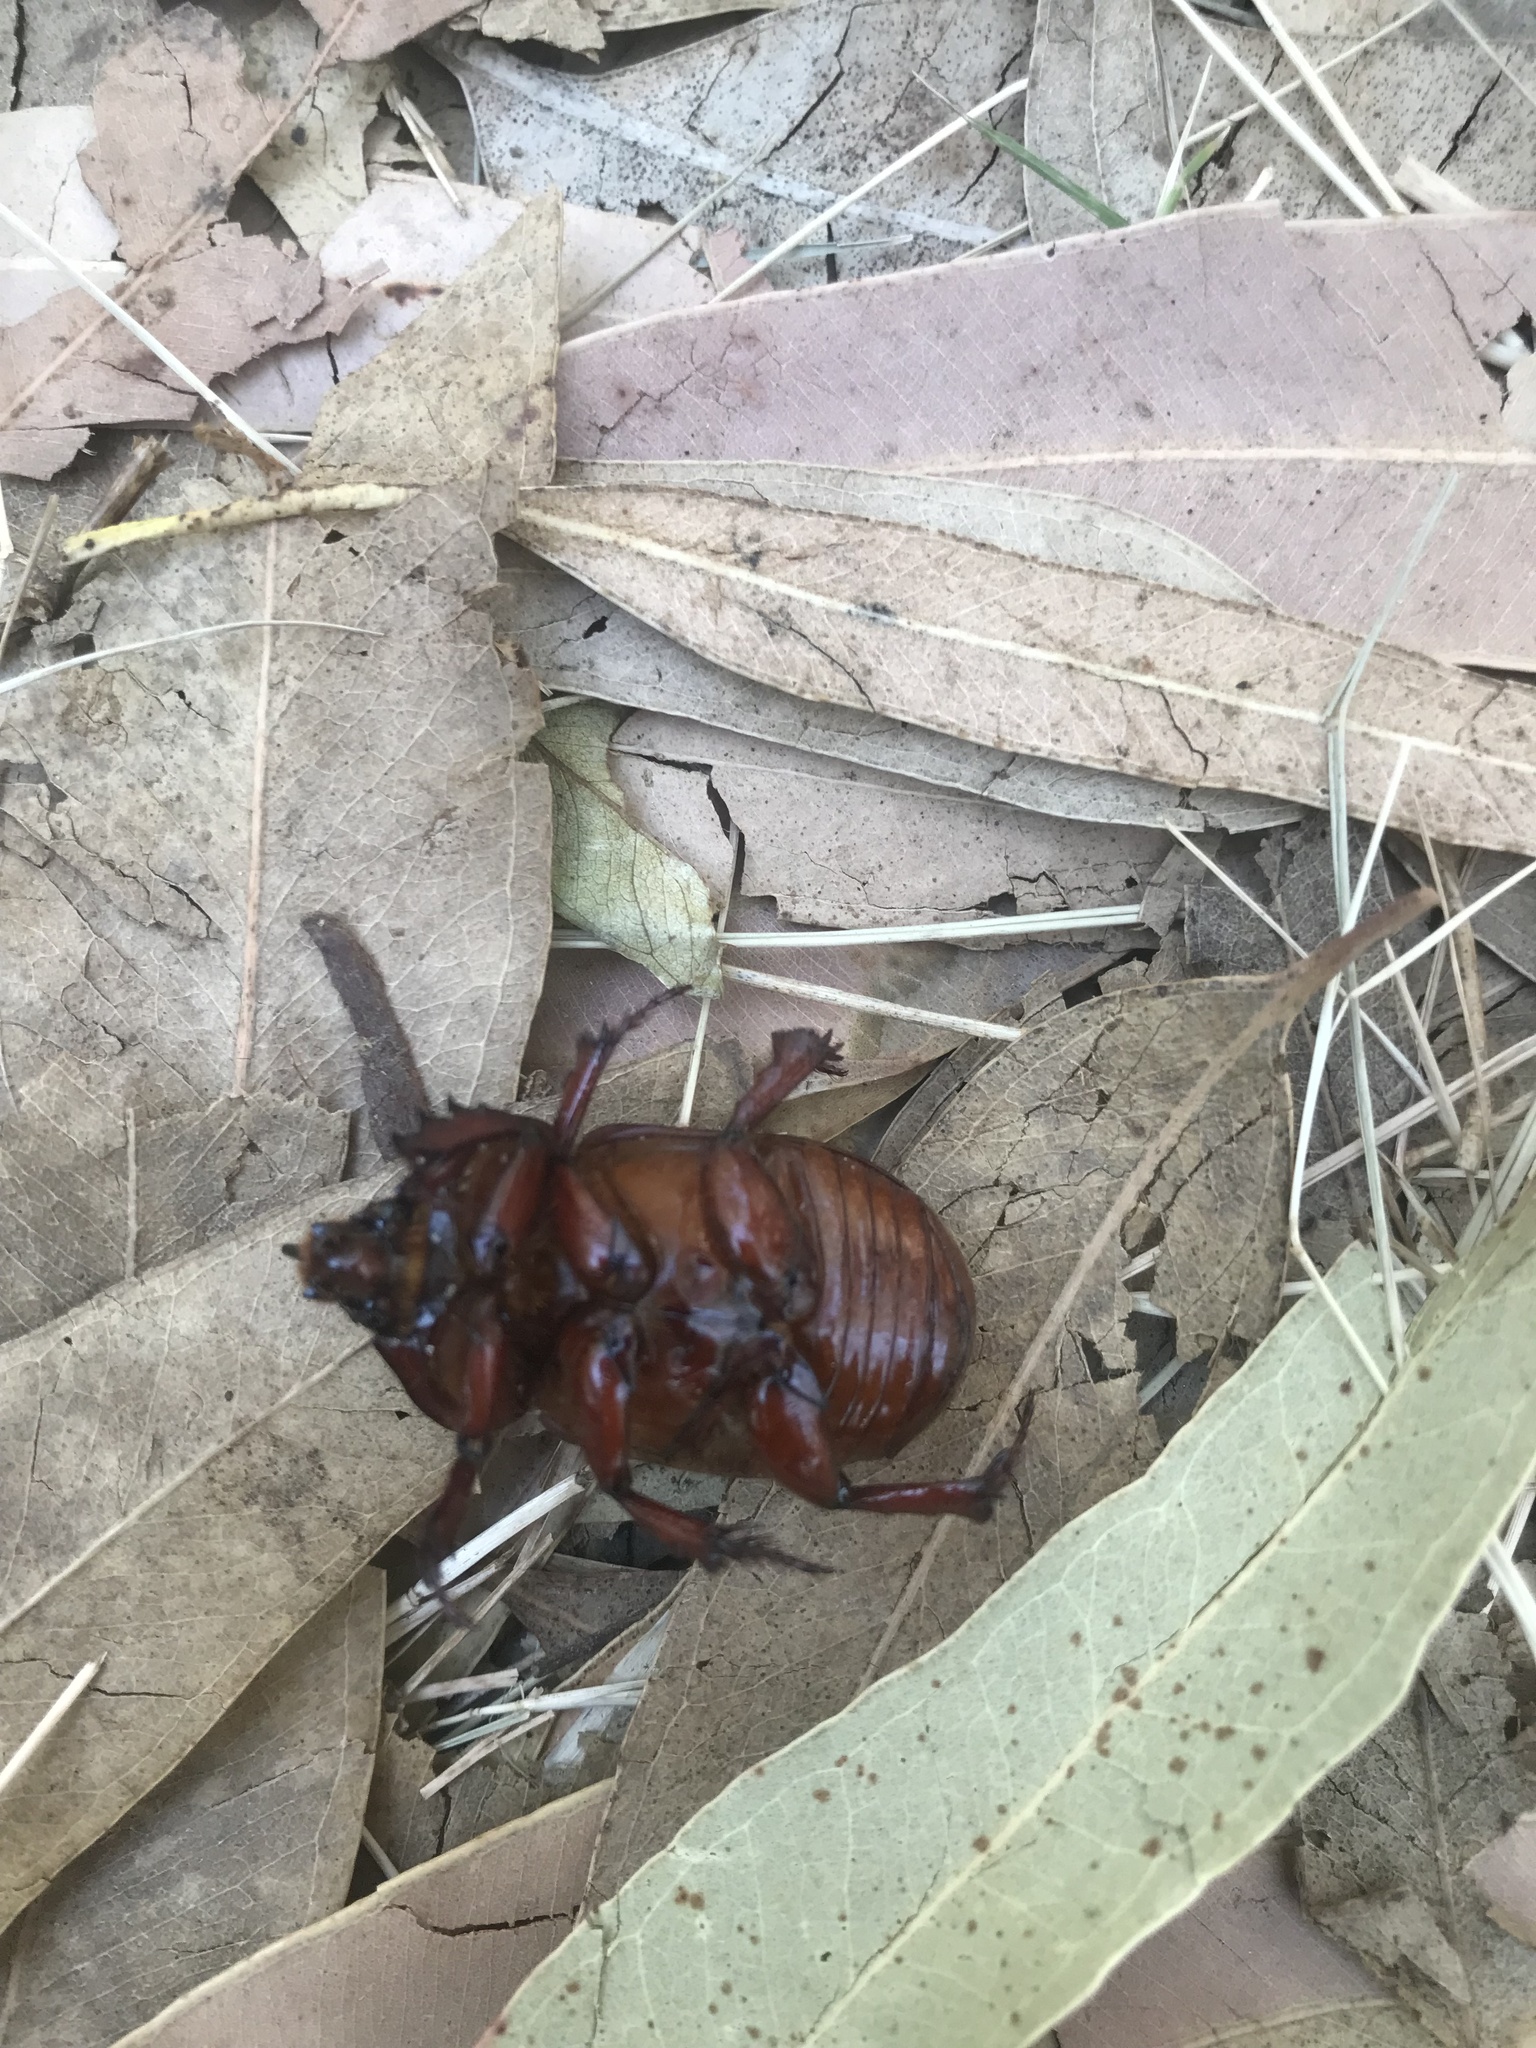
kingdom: Animalia
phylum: Arthropoda
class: Insecta
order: Coleoptera
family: Scarabaeidae
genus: Thronistes
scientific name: Thronistes rouxi
